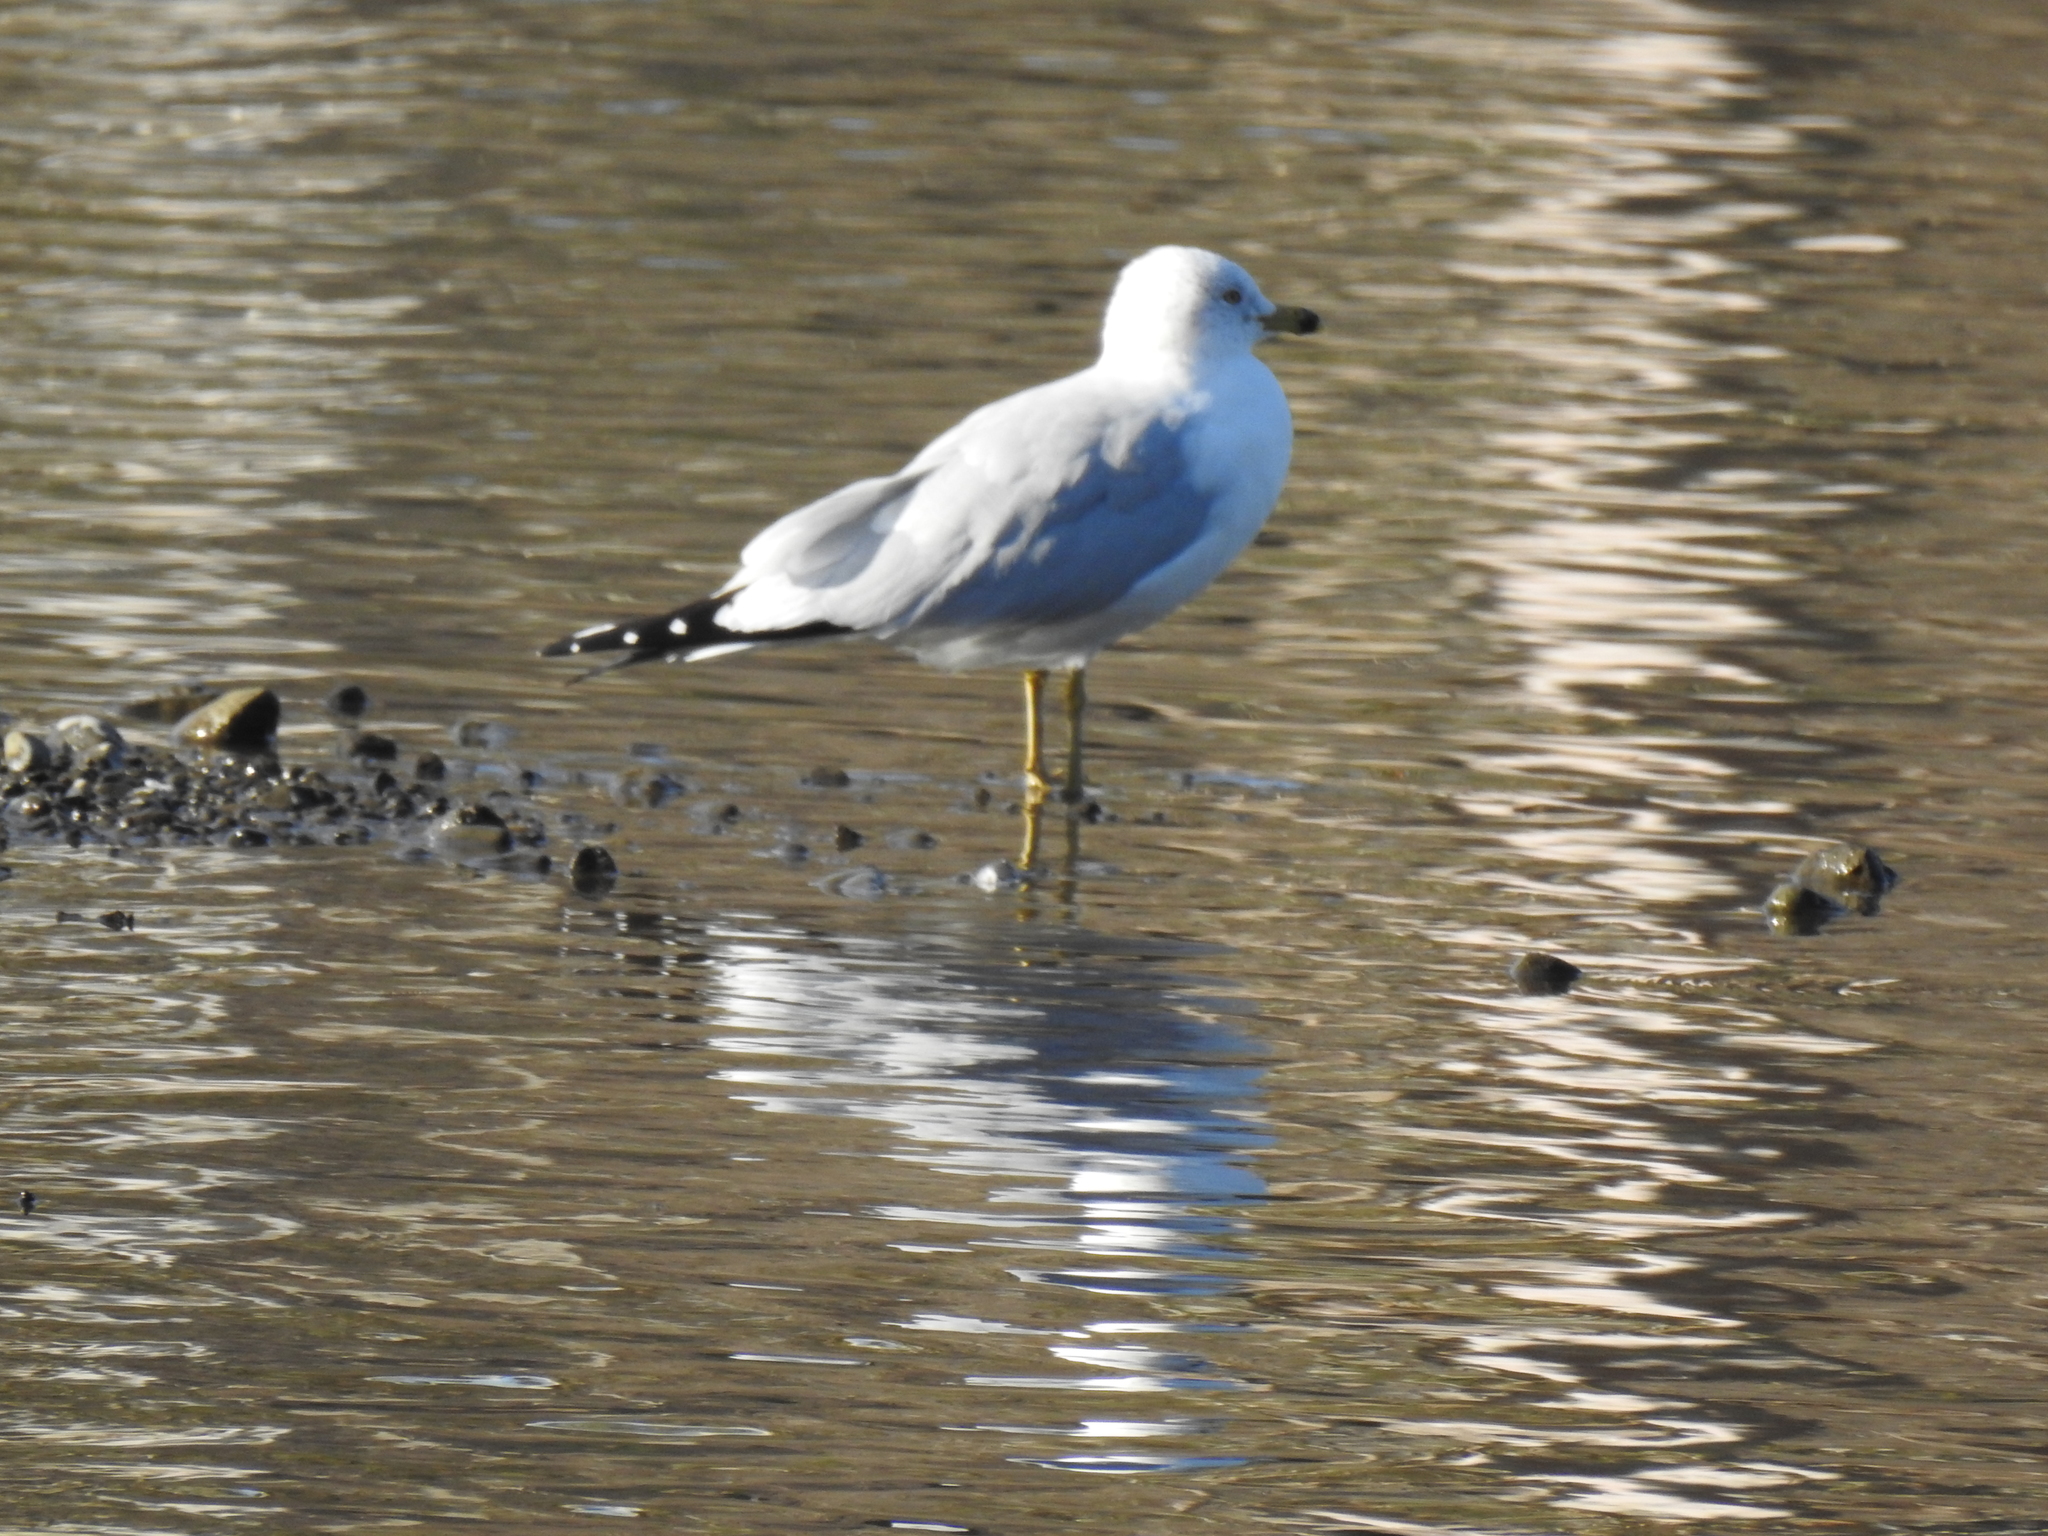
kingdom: Animalia
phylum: Chordata
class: Aves
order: Charadriiformes
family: Laridae
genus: Larus
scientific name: Larus delawarensis
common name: Ring-billed gull
